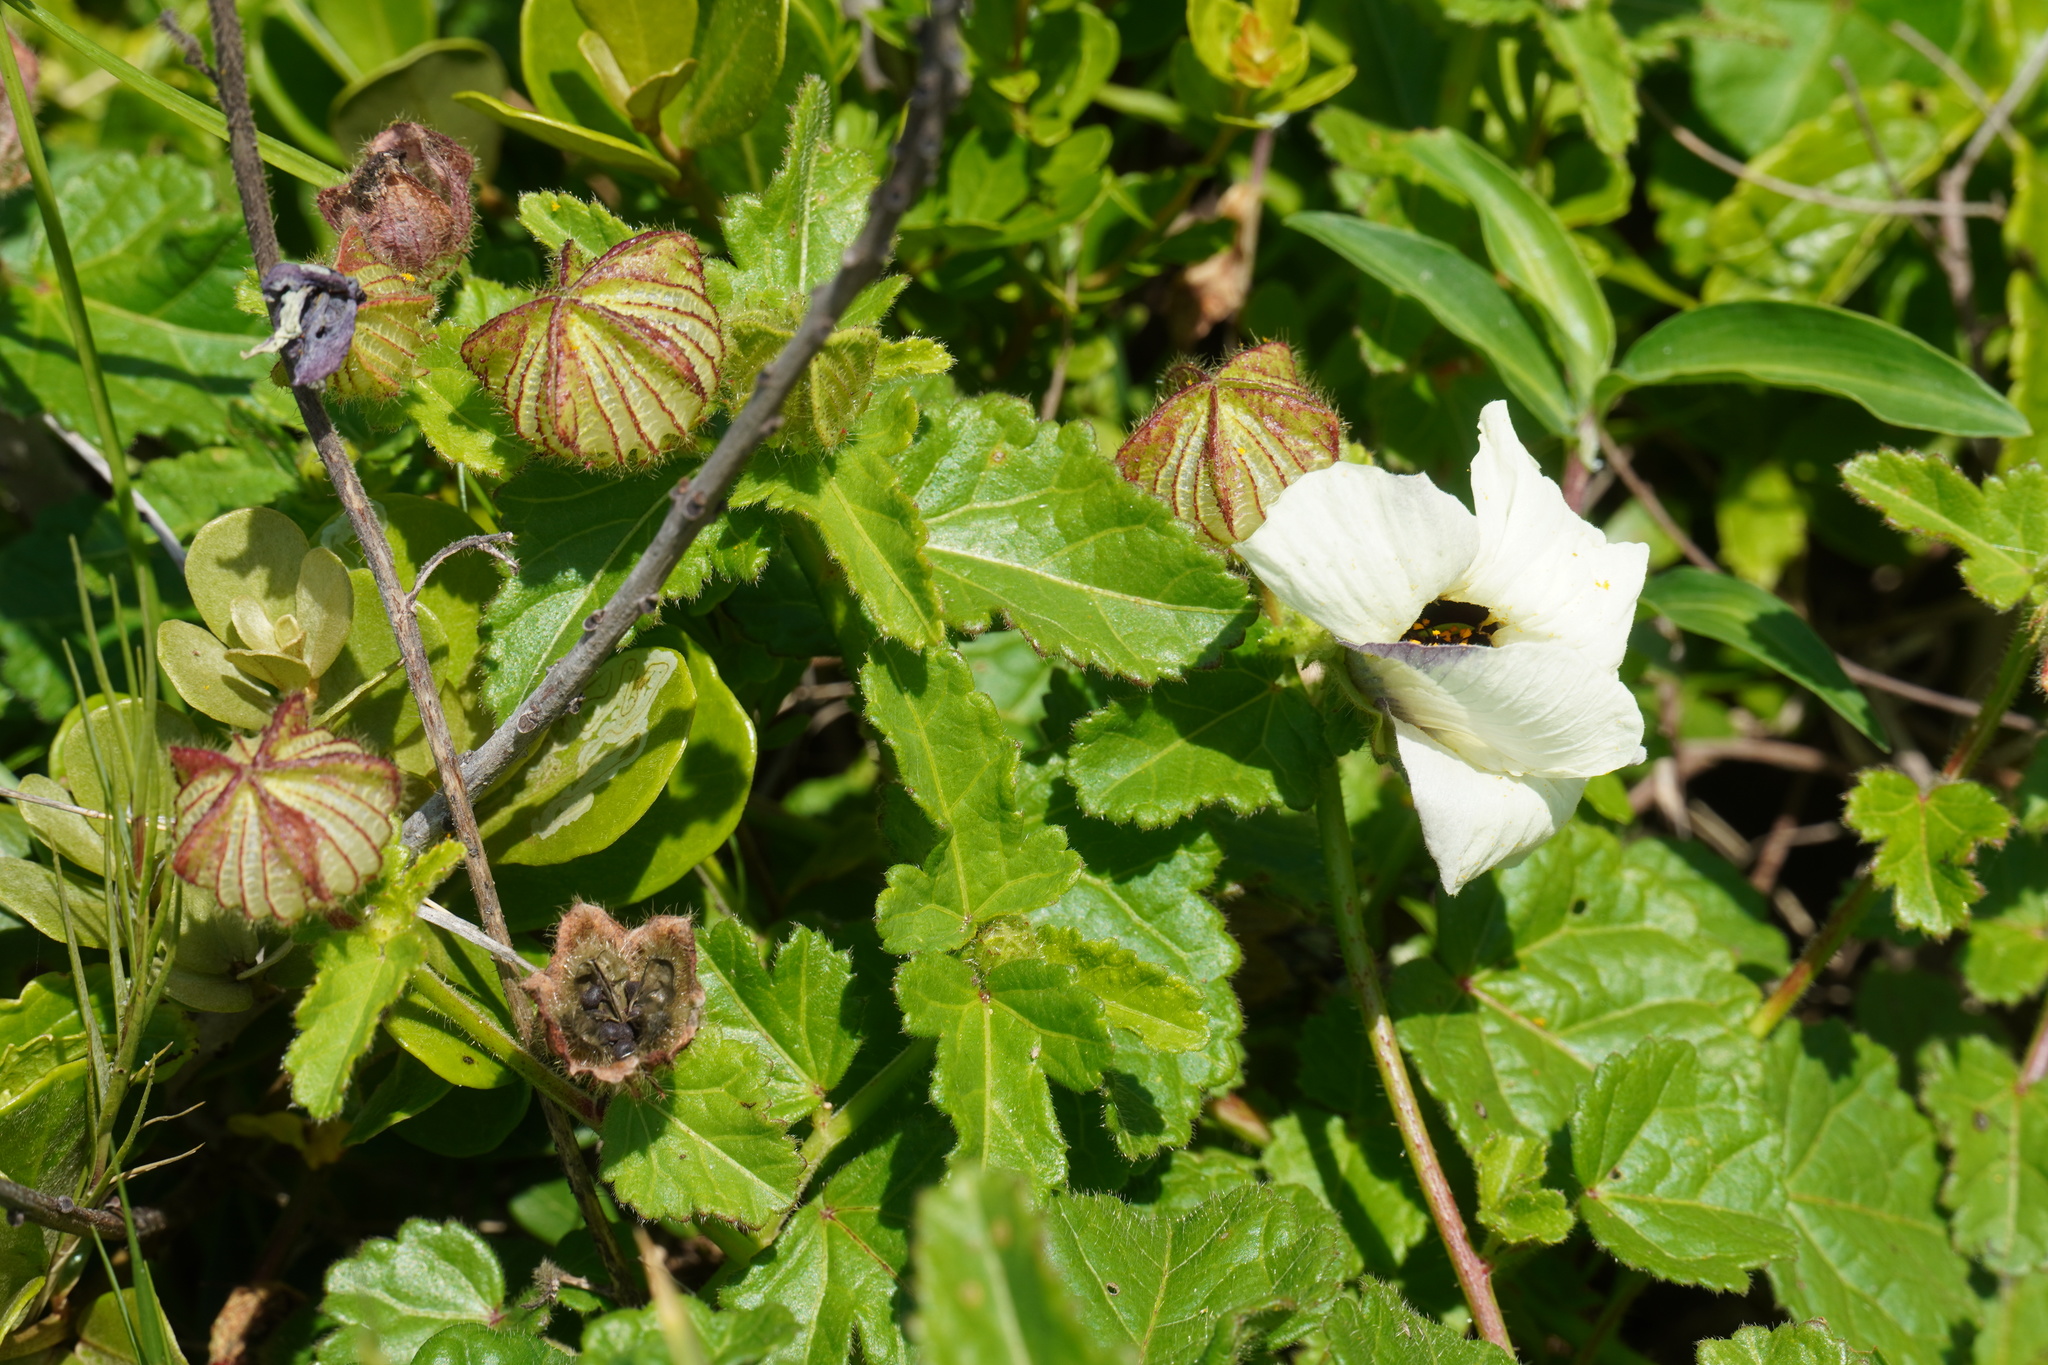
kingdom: Plantae
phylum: Tracheophyta
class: Magnoliopsida
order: Malvales
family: Malvaceae
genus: Hibiscus
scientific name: Hibiscus trionum
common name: Bladder ketmia
